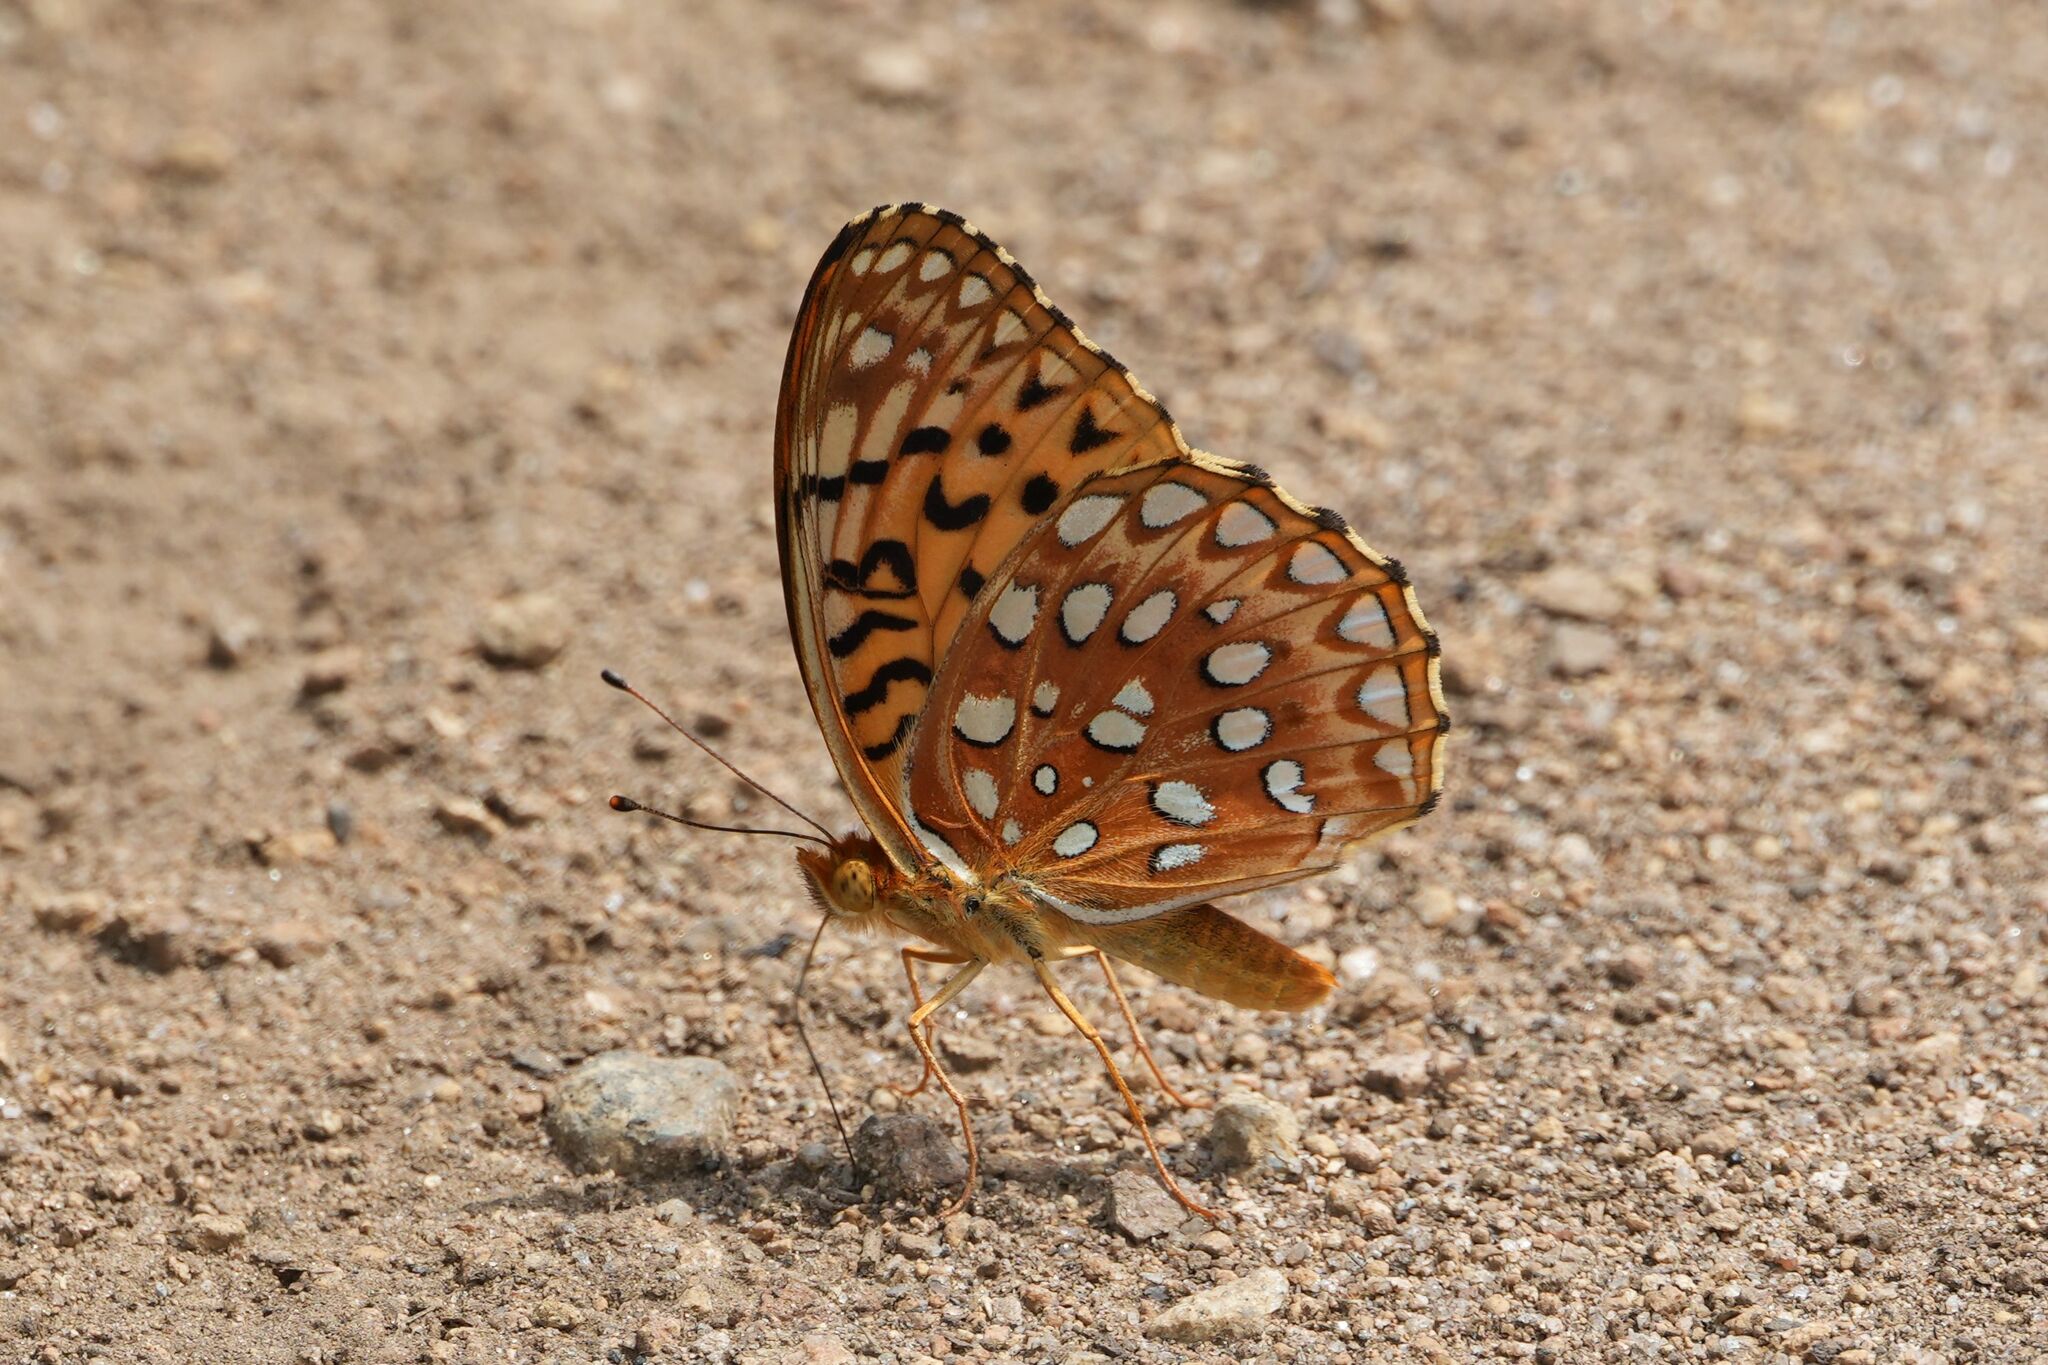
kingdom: Animalia
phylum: Arthropoda
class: Insecta
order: Lepidoptera
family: Nymphalidae
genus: Speyeria
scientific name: Speyeria aphrodite
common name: Aphrodite friitllary
